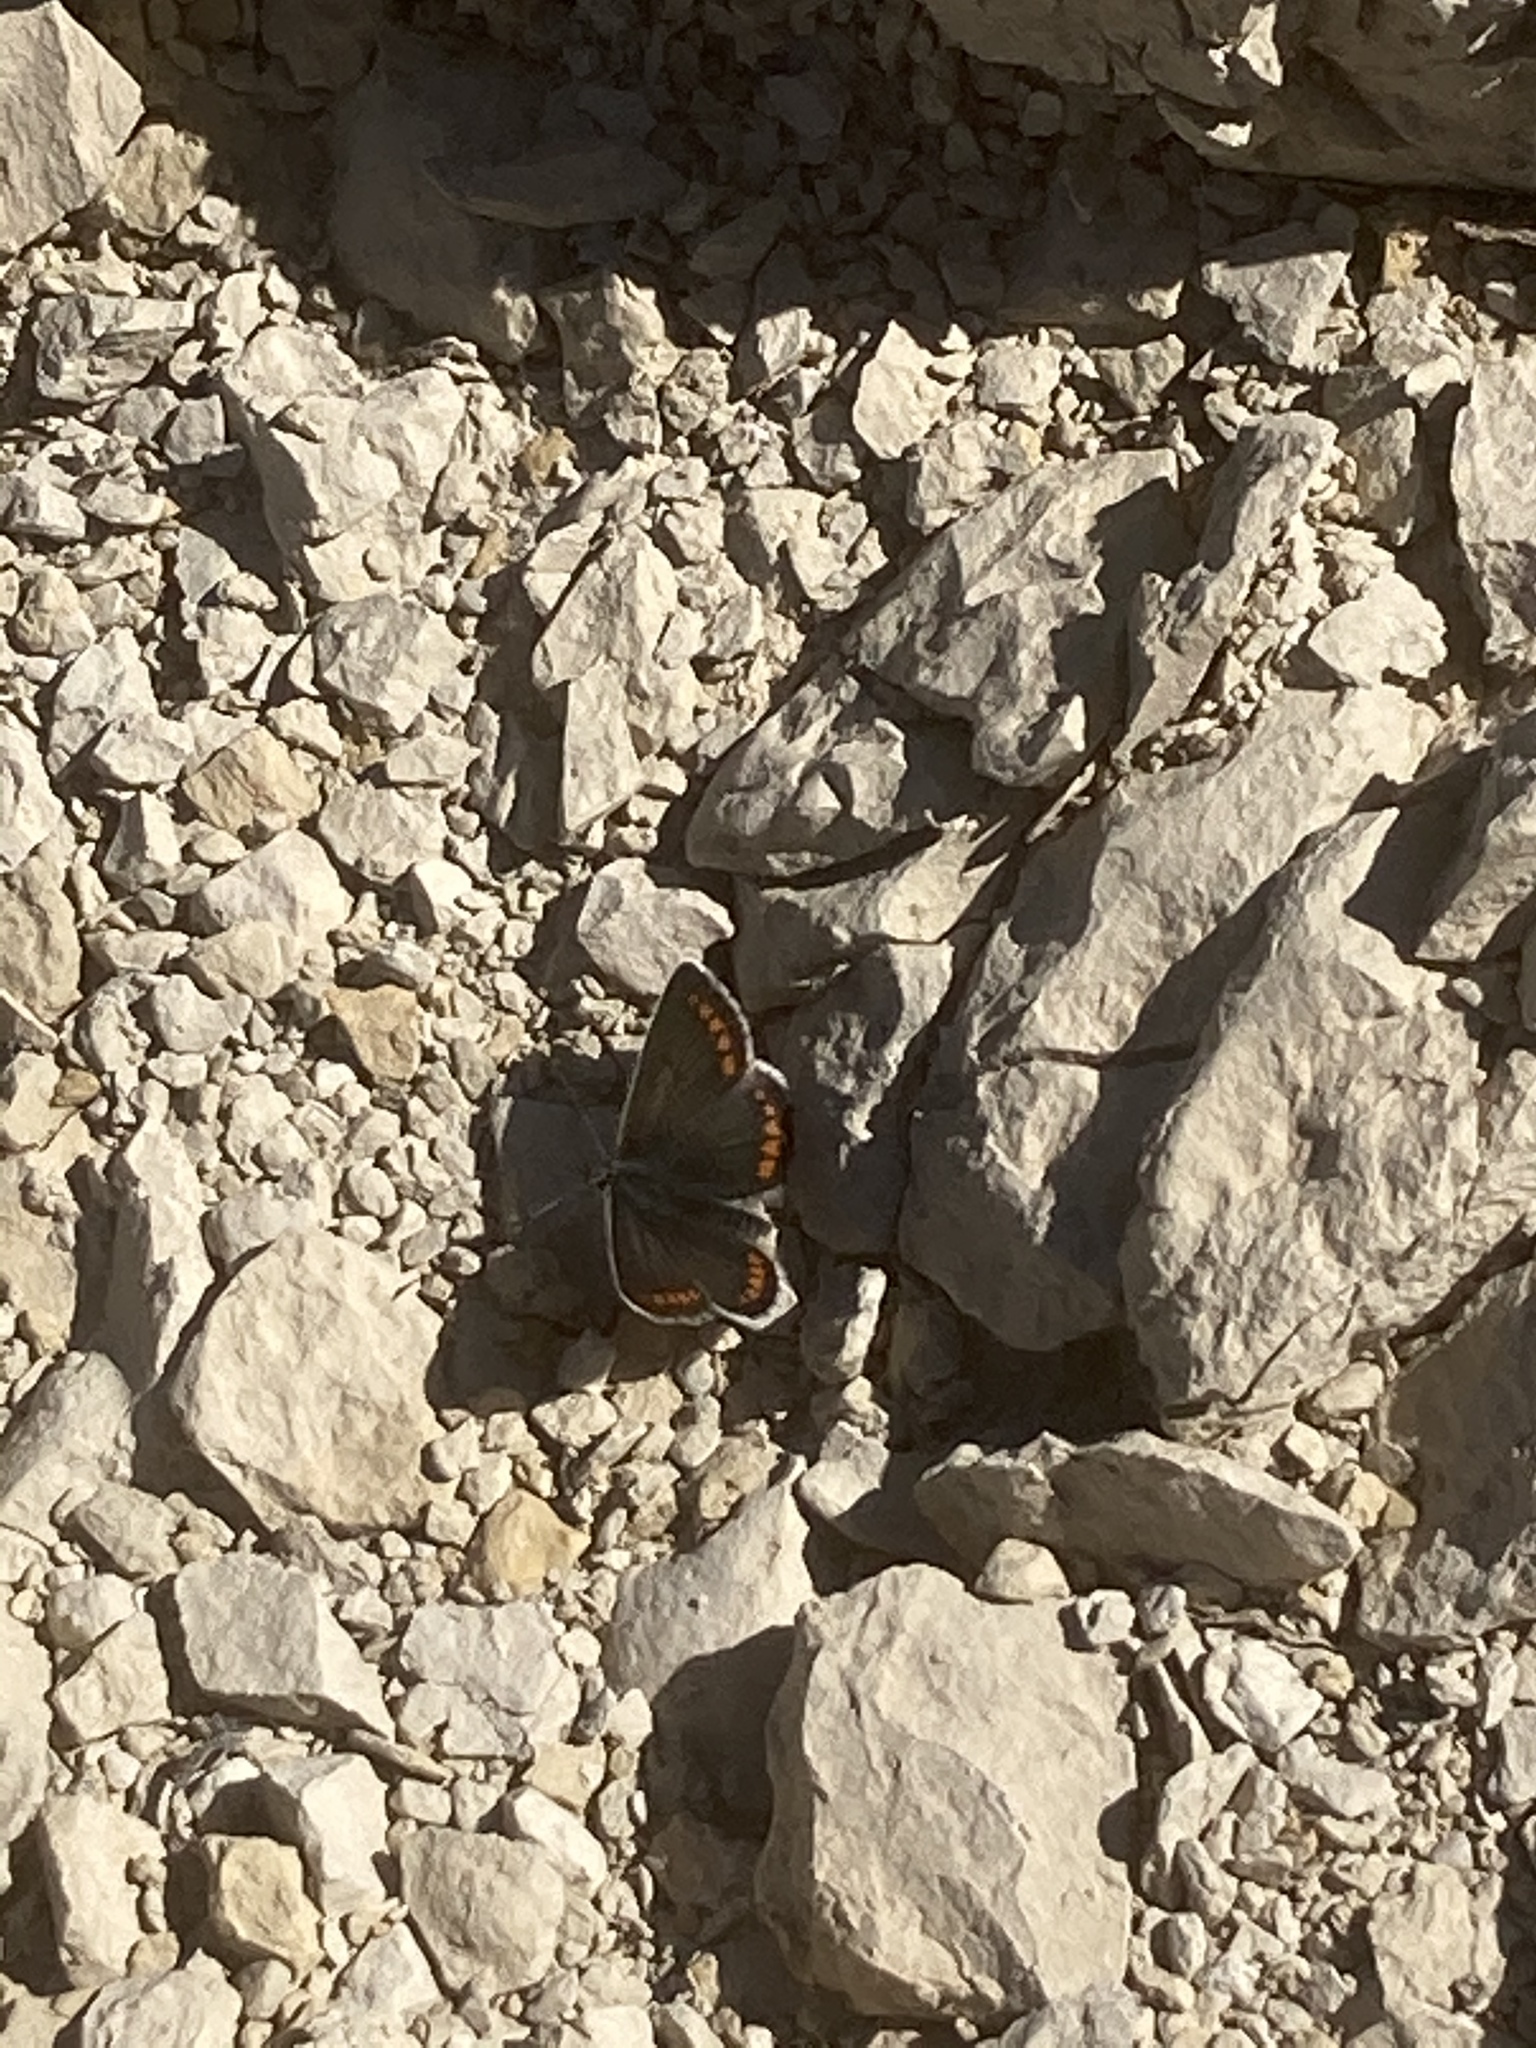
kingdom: Animalia
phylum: Arthropoda
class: Insecta
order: Lepidoptera
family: Lycaenidae
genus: Aricia
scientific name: Aricia agestis
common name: Brown argus
